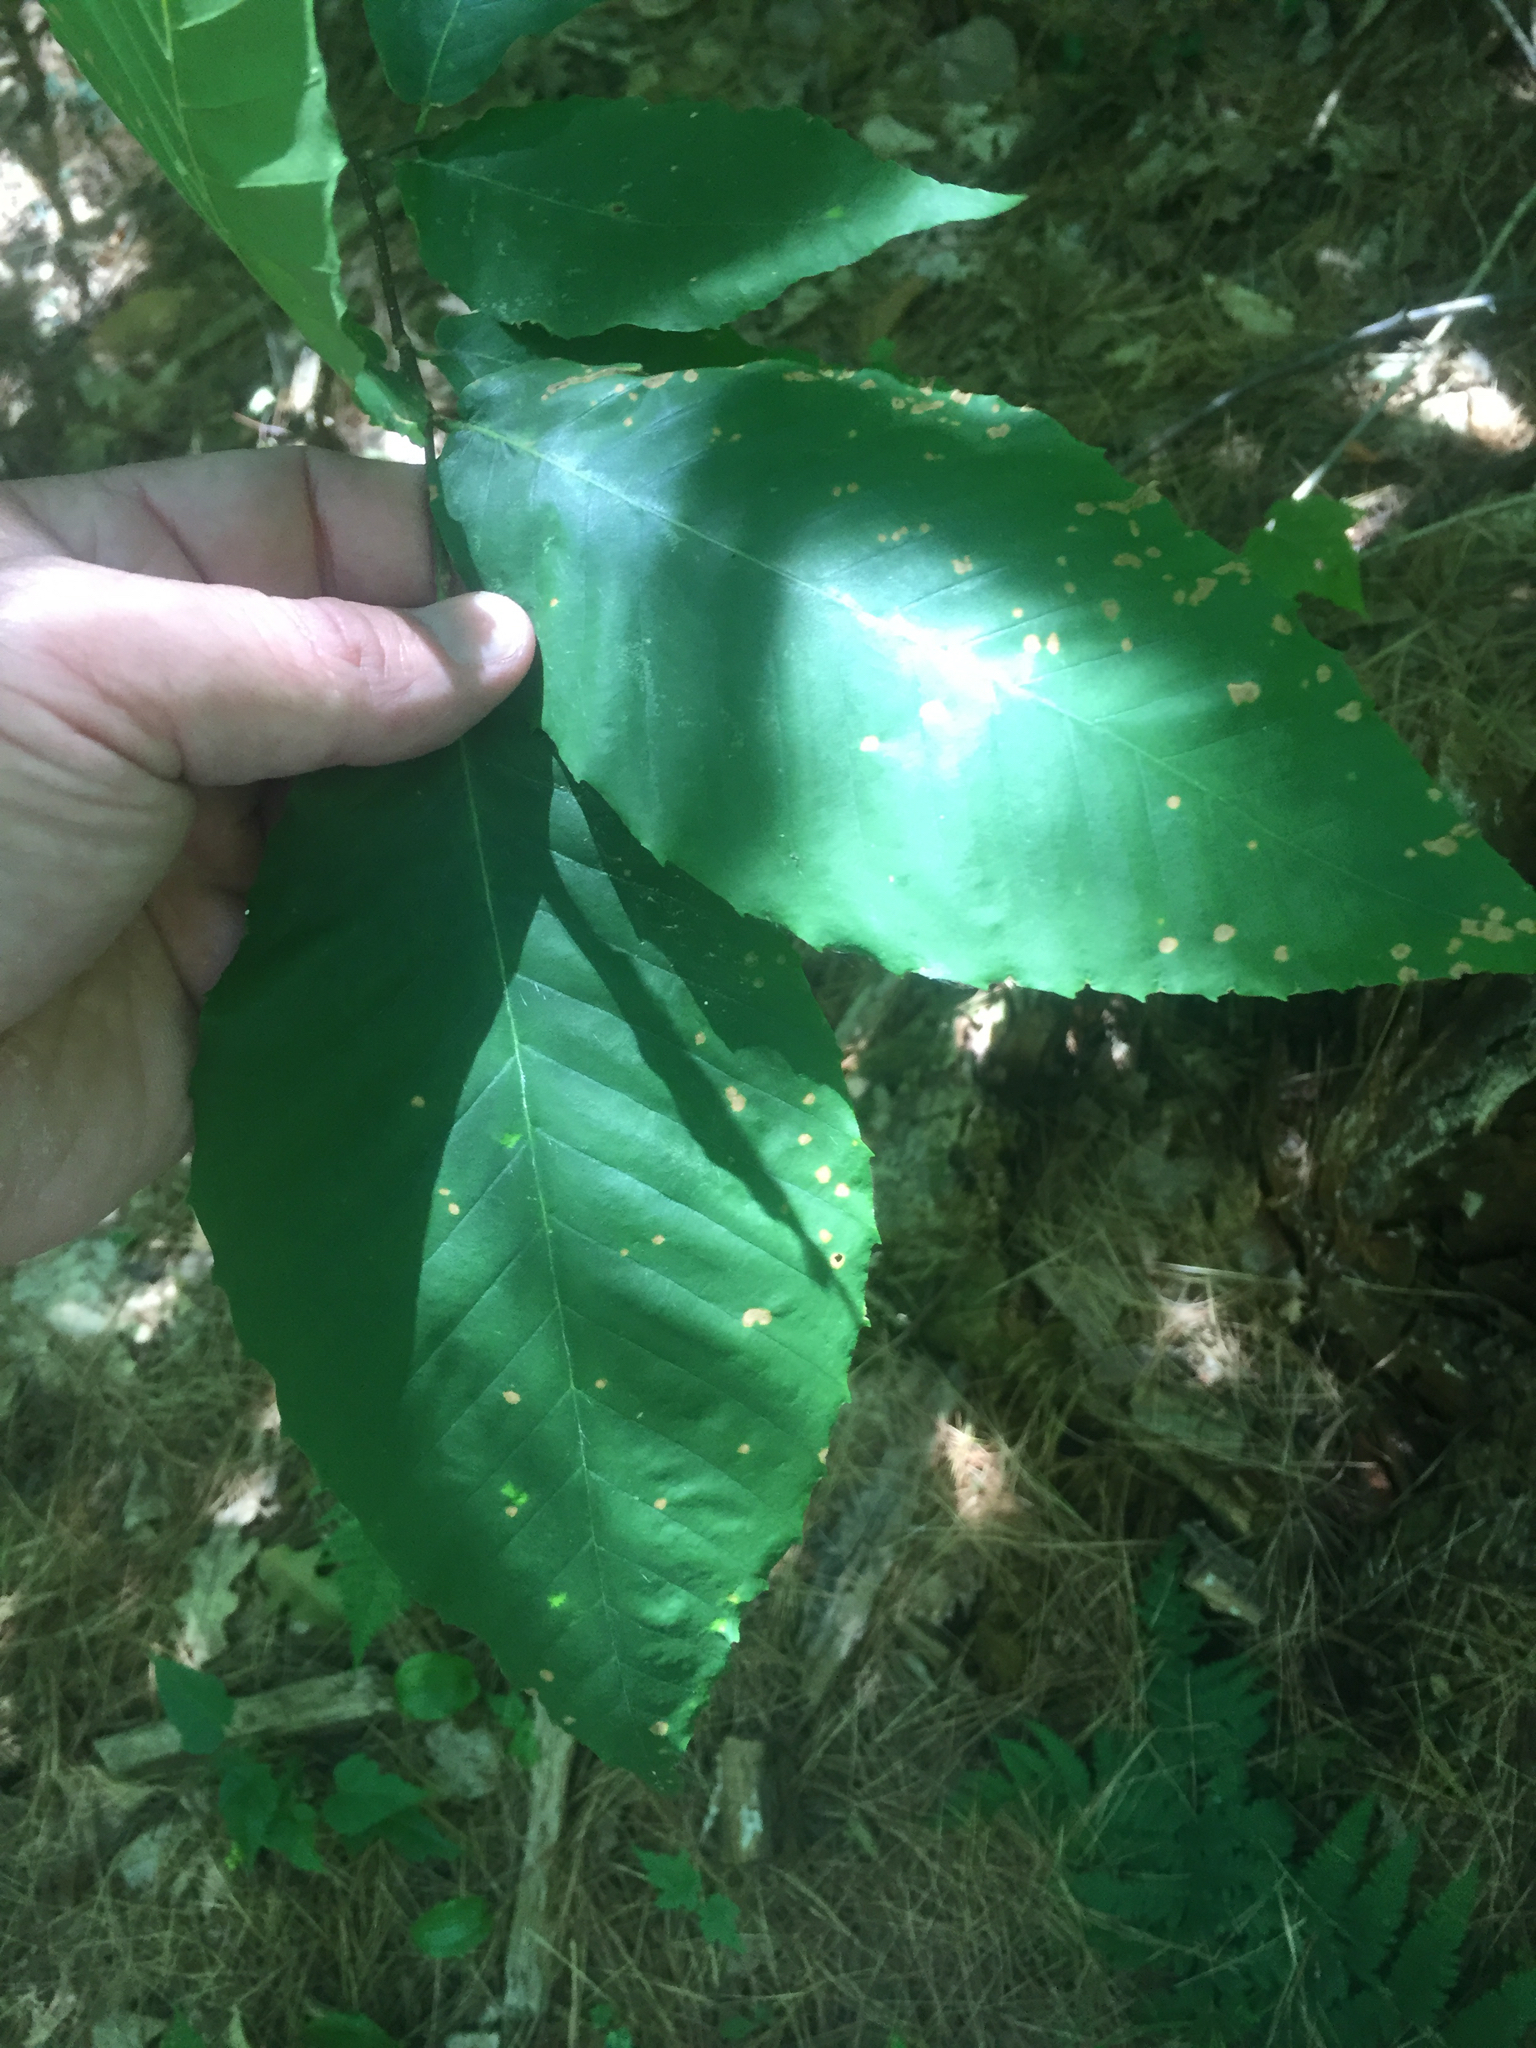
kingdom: Plantae
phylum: Tracheophyta
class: Magnoliopsida
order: Fagales
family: Fagaceae
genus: Fagus
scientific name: Fagus grandifolia
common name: American beech
